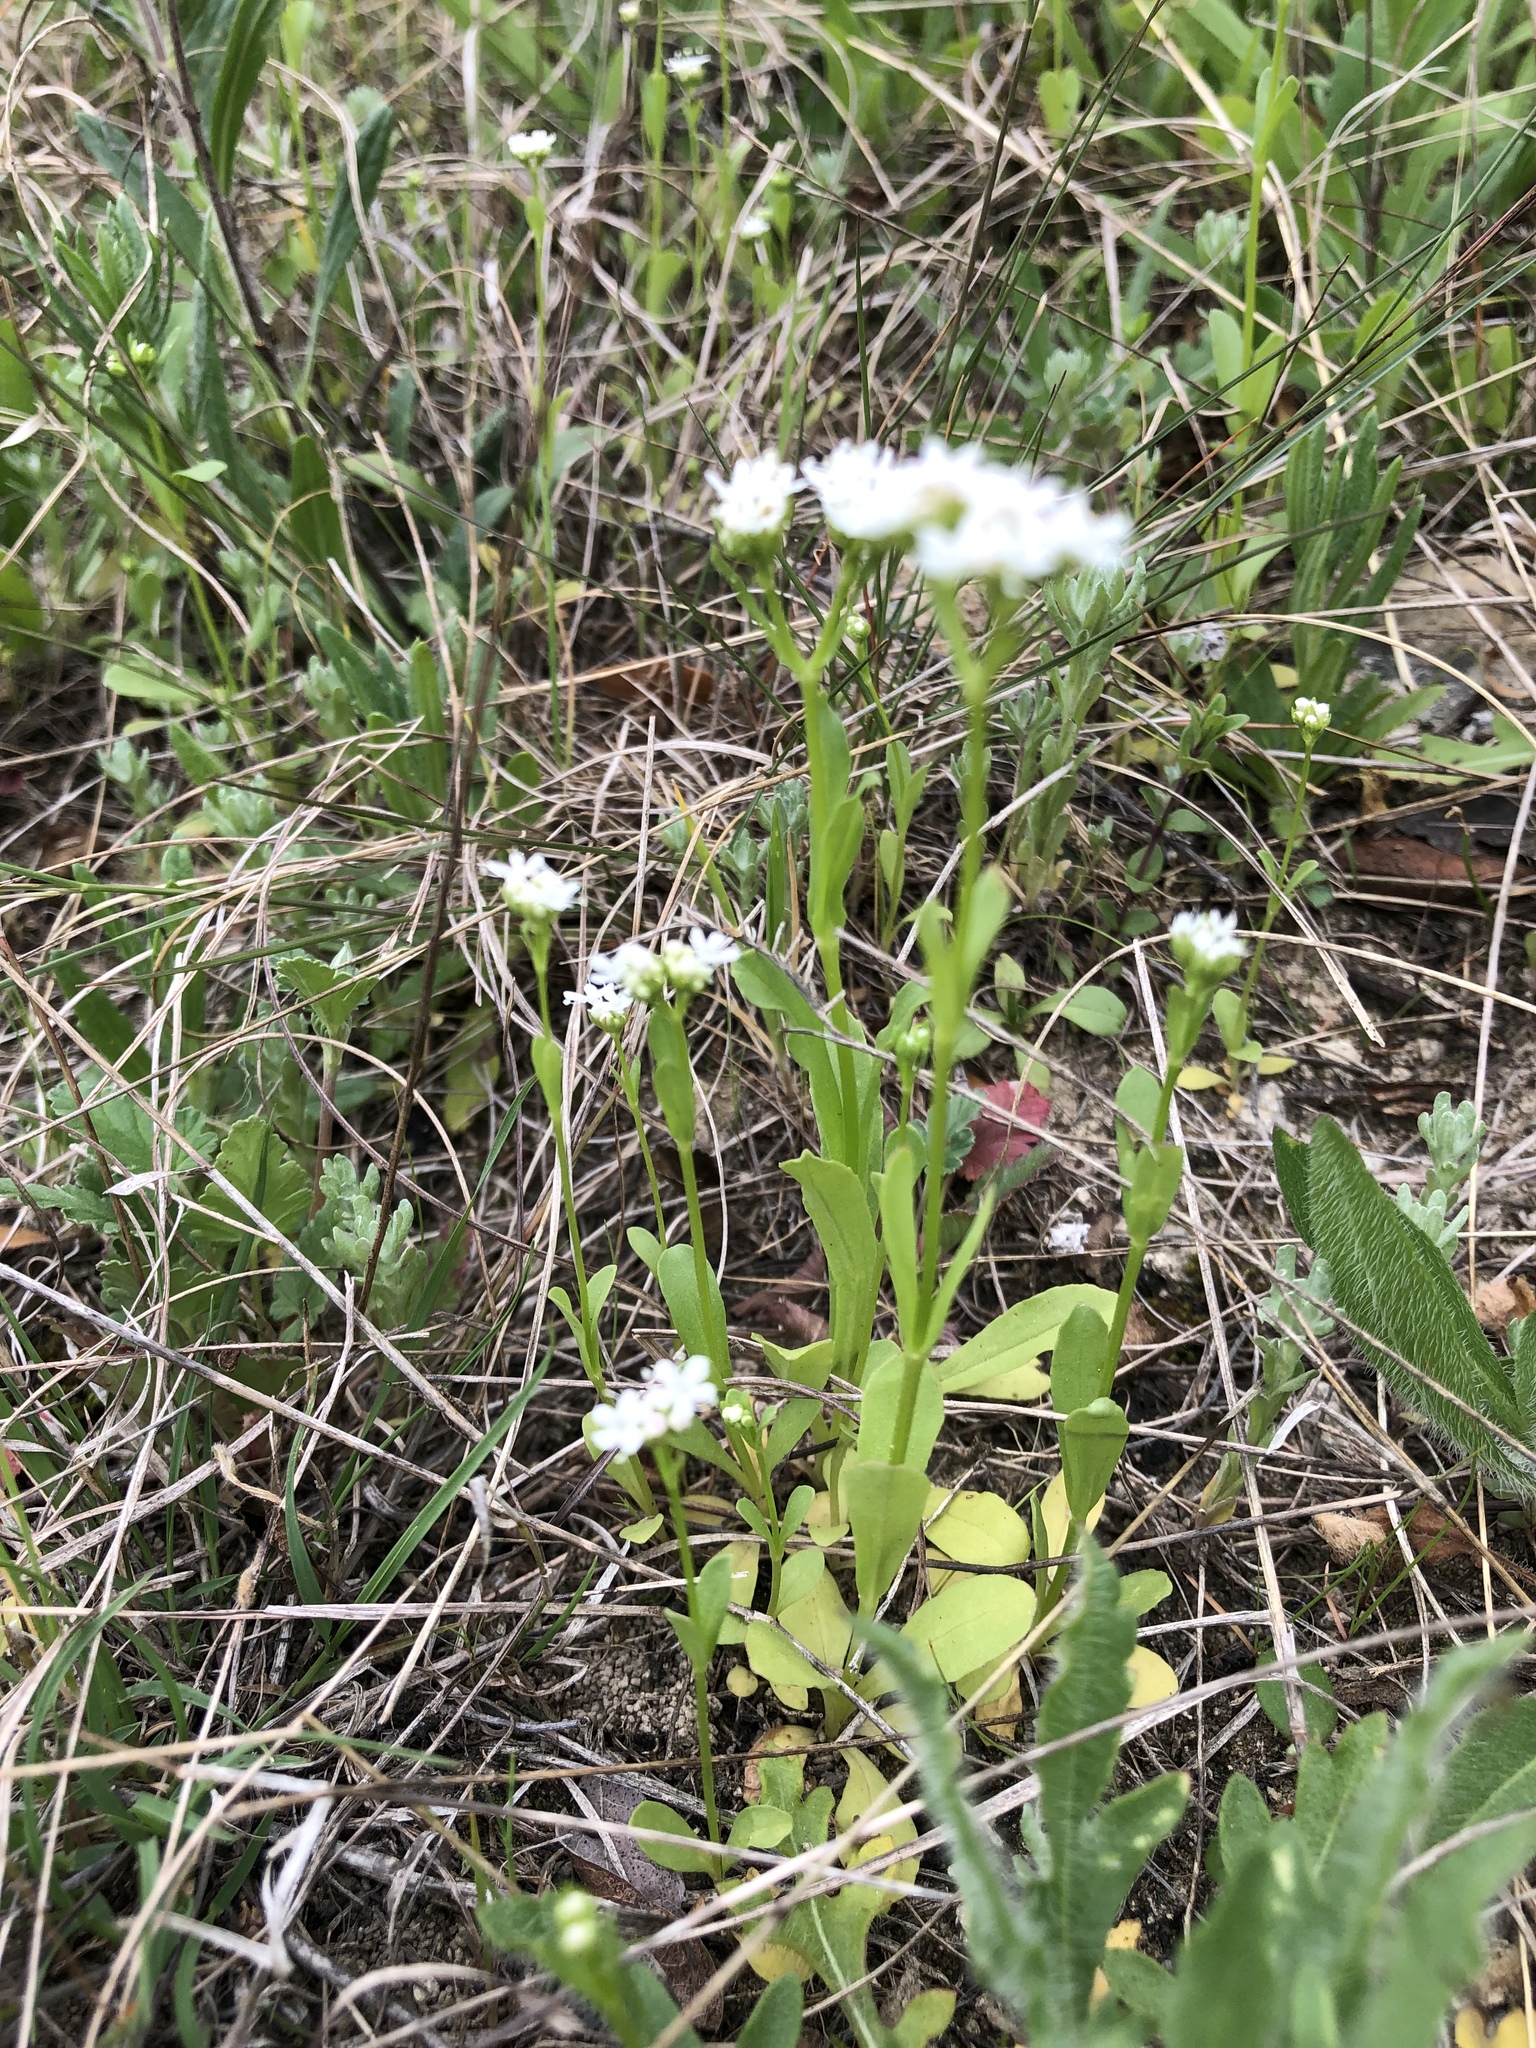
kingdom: Plantae
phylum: Tracheophyta
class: Magnoliopsida
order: Dipsacales
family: Caprifoliaceae
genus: Valerianella
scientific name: Valerianella amarella
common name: Hariy cornsalad
